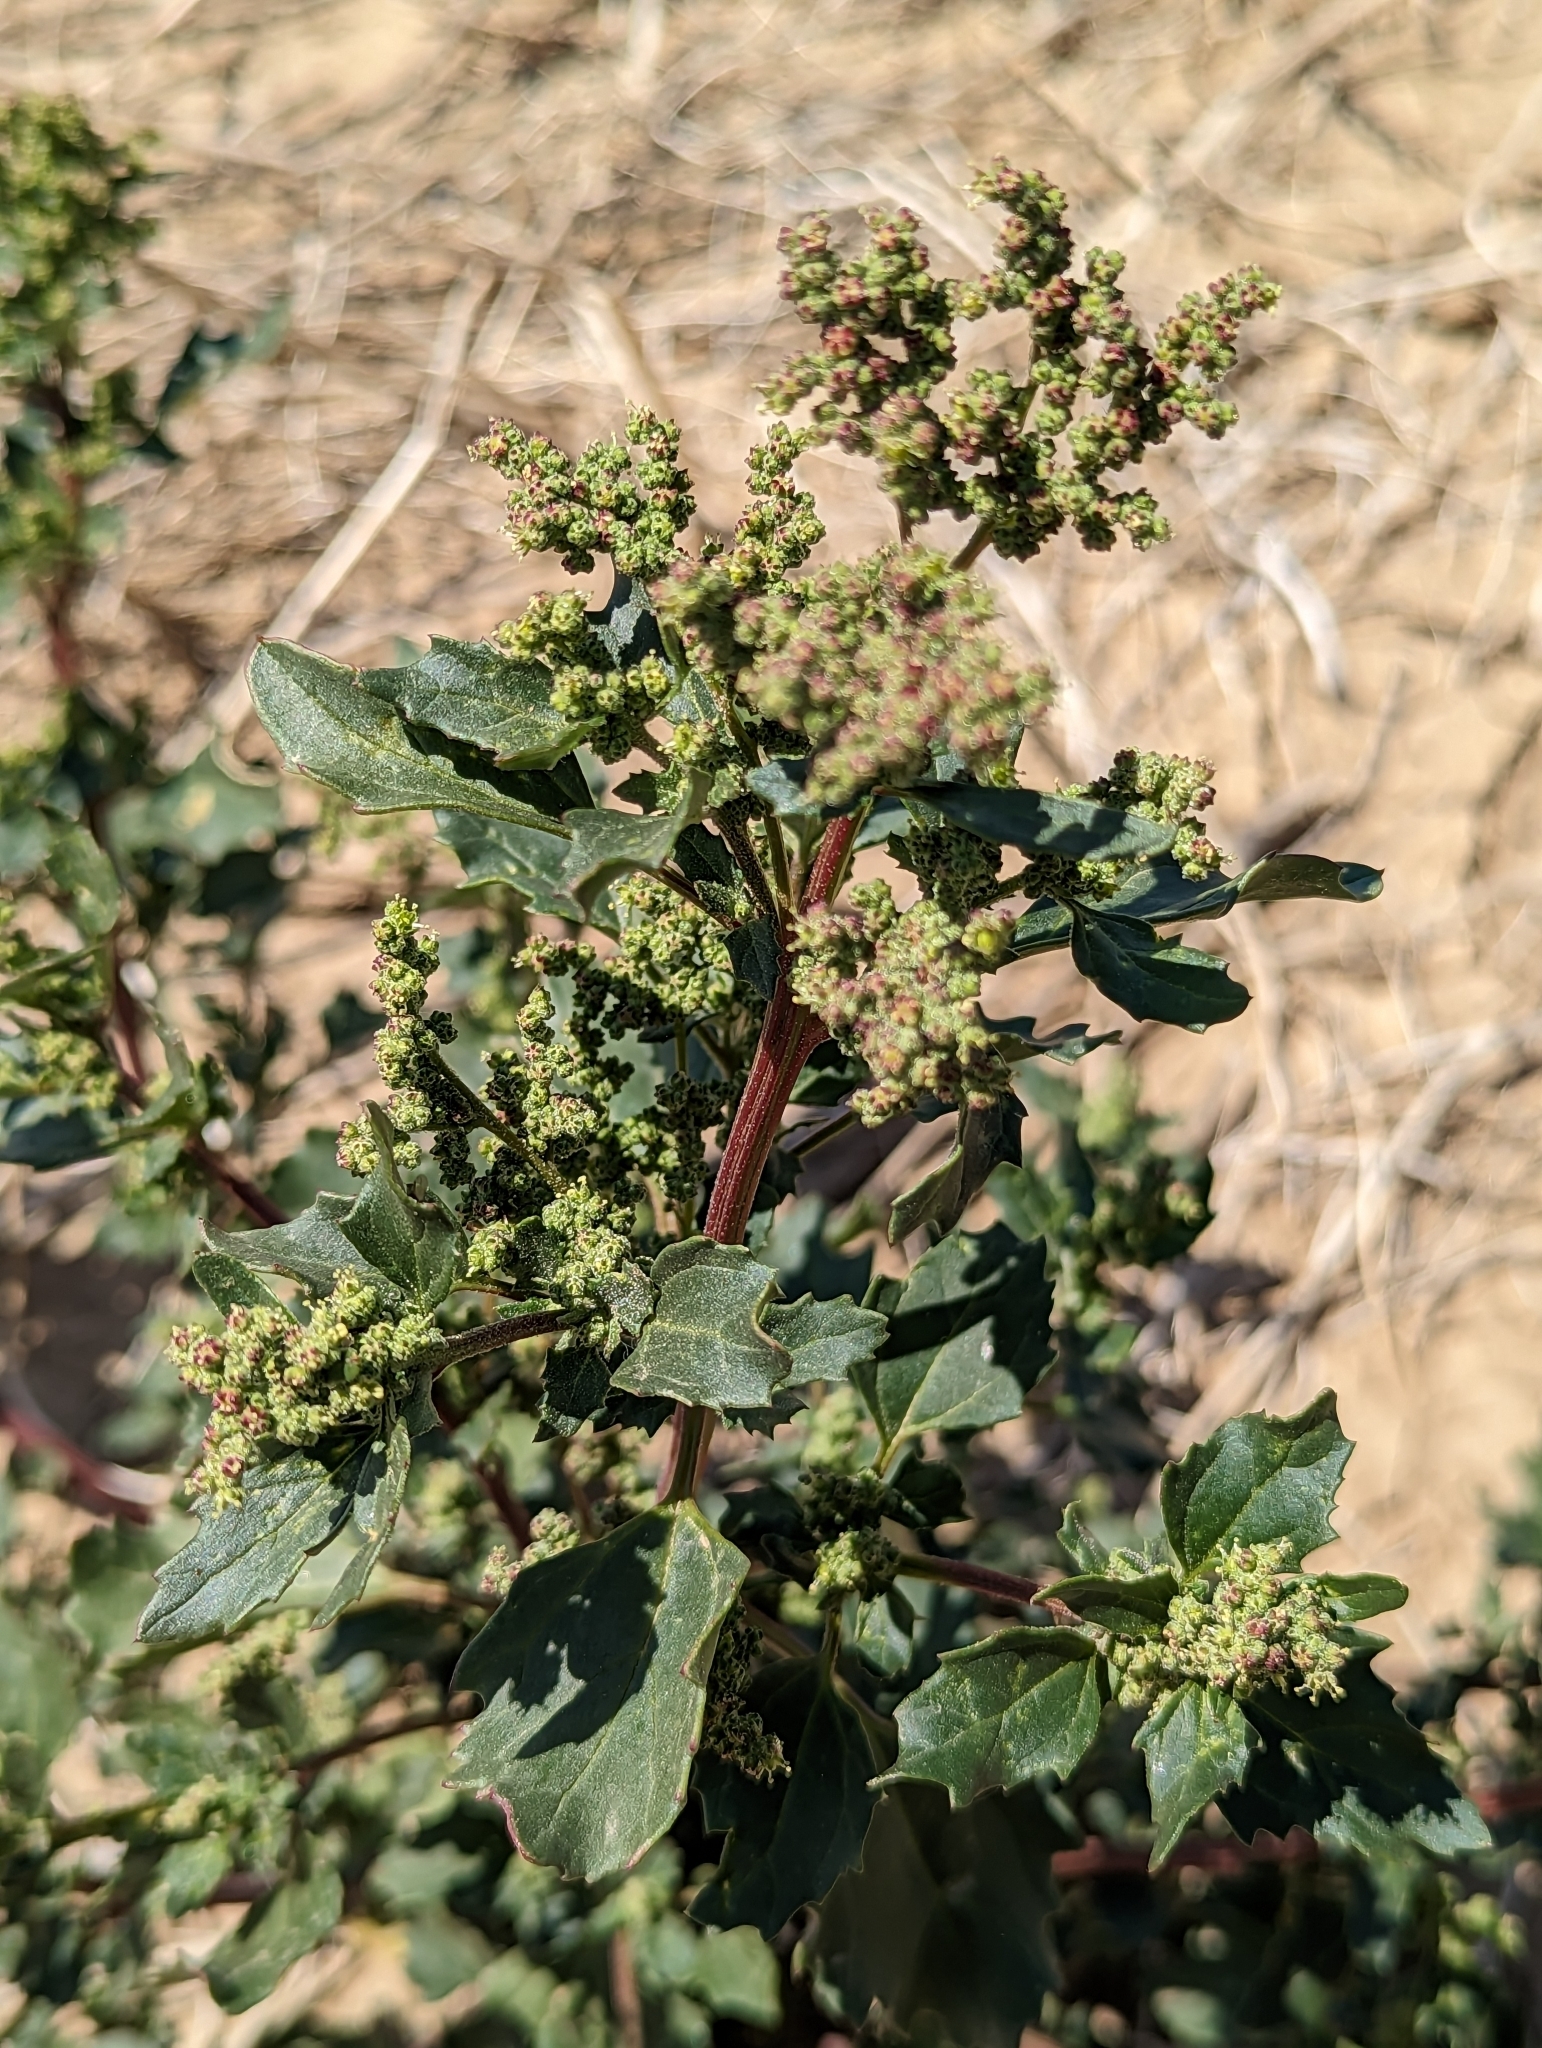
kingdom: Plantae
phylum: Tracheophyta
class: Magnoliopsida
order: Caryophyllales
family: Amaranthaceae
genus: Chenopodiastrum
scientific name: Chenopodiastrum murale
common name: Sowbane
